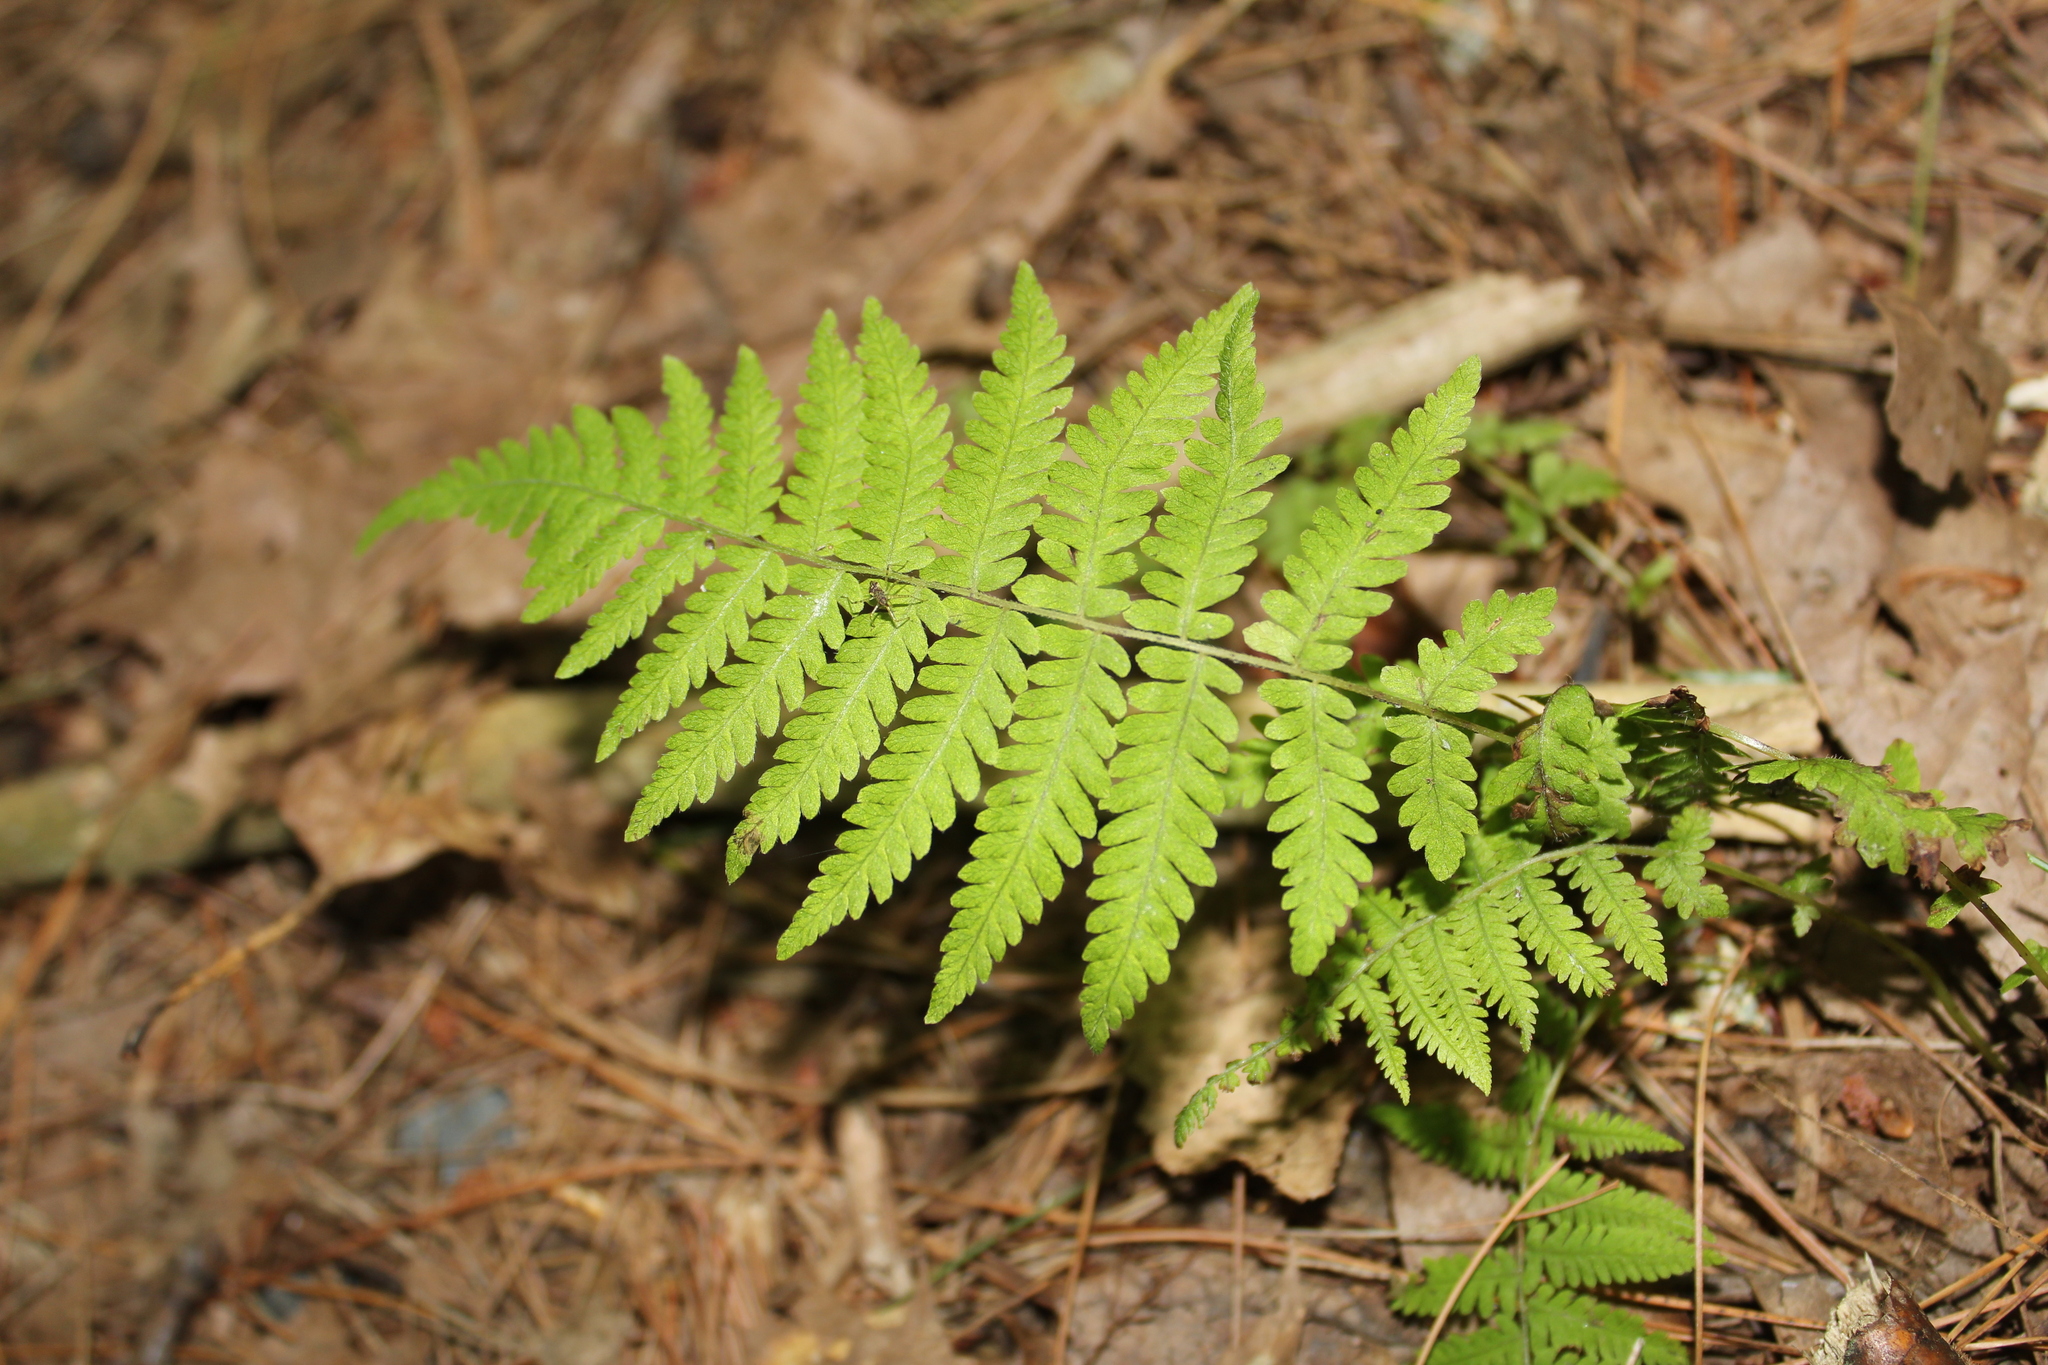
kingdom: Plantae
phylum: Tracheophyta
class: Polypodiopsida
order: Polypodiales
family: Thelypteridaceae
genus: Amauropelta
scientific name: Amauropelta noveboracensis
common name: New york fern
